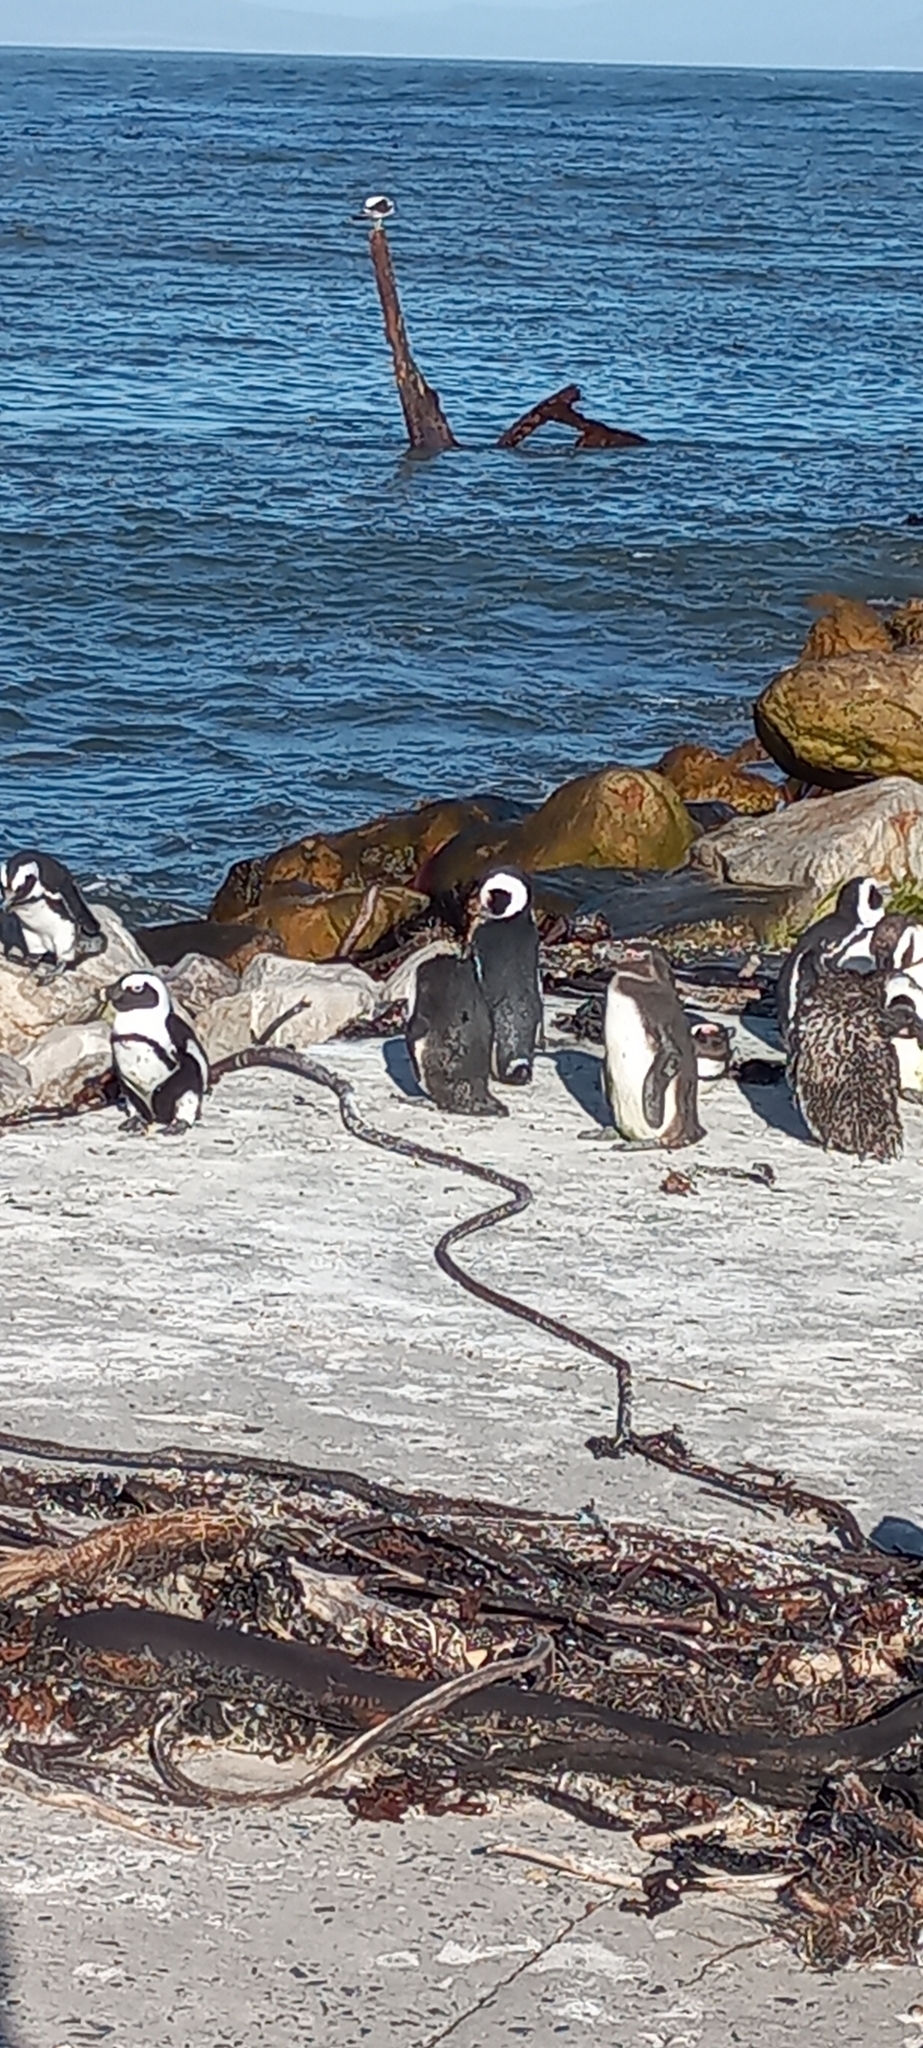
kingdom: Animalia
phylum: Chordata
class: Aves
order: Sphenisciformes
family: Spheniscidae
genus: Spheniscus
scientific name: Spheniscus demersus
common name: African penguin
